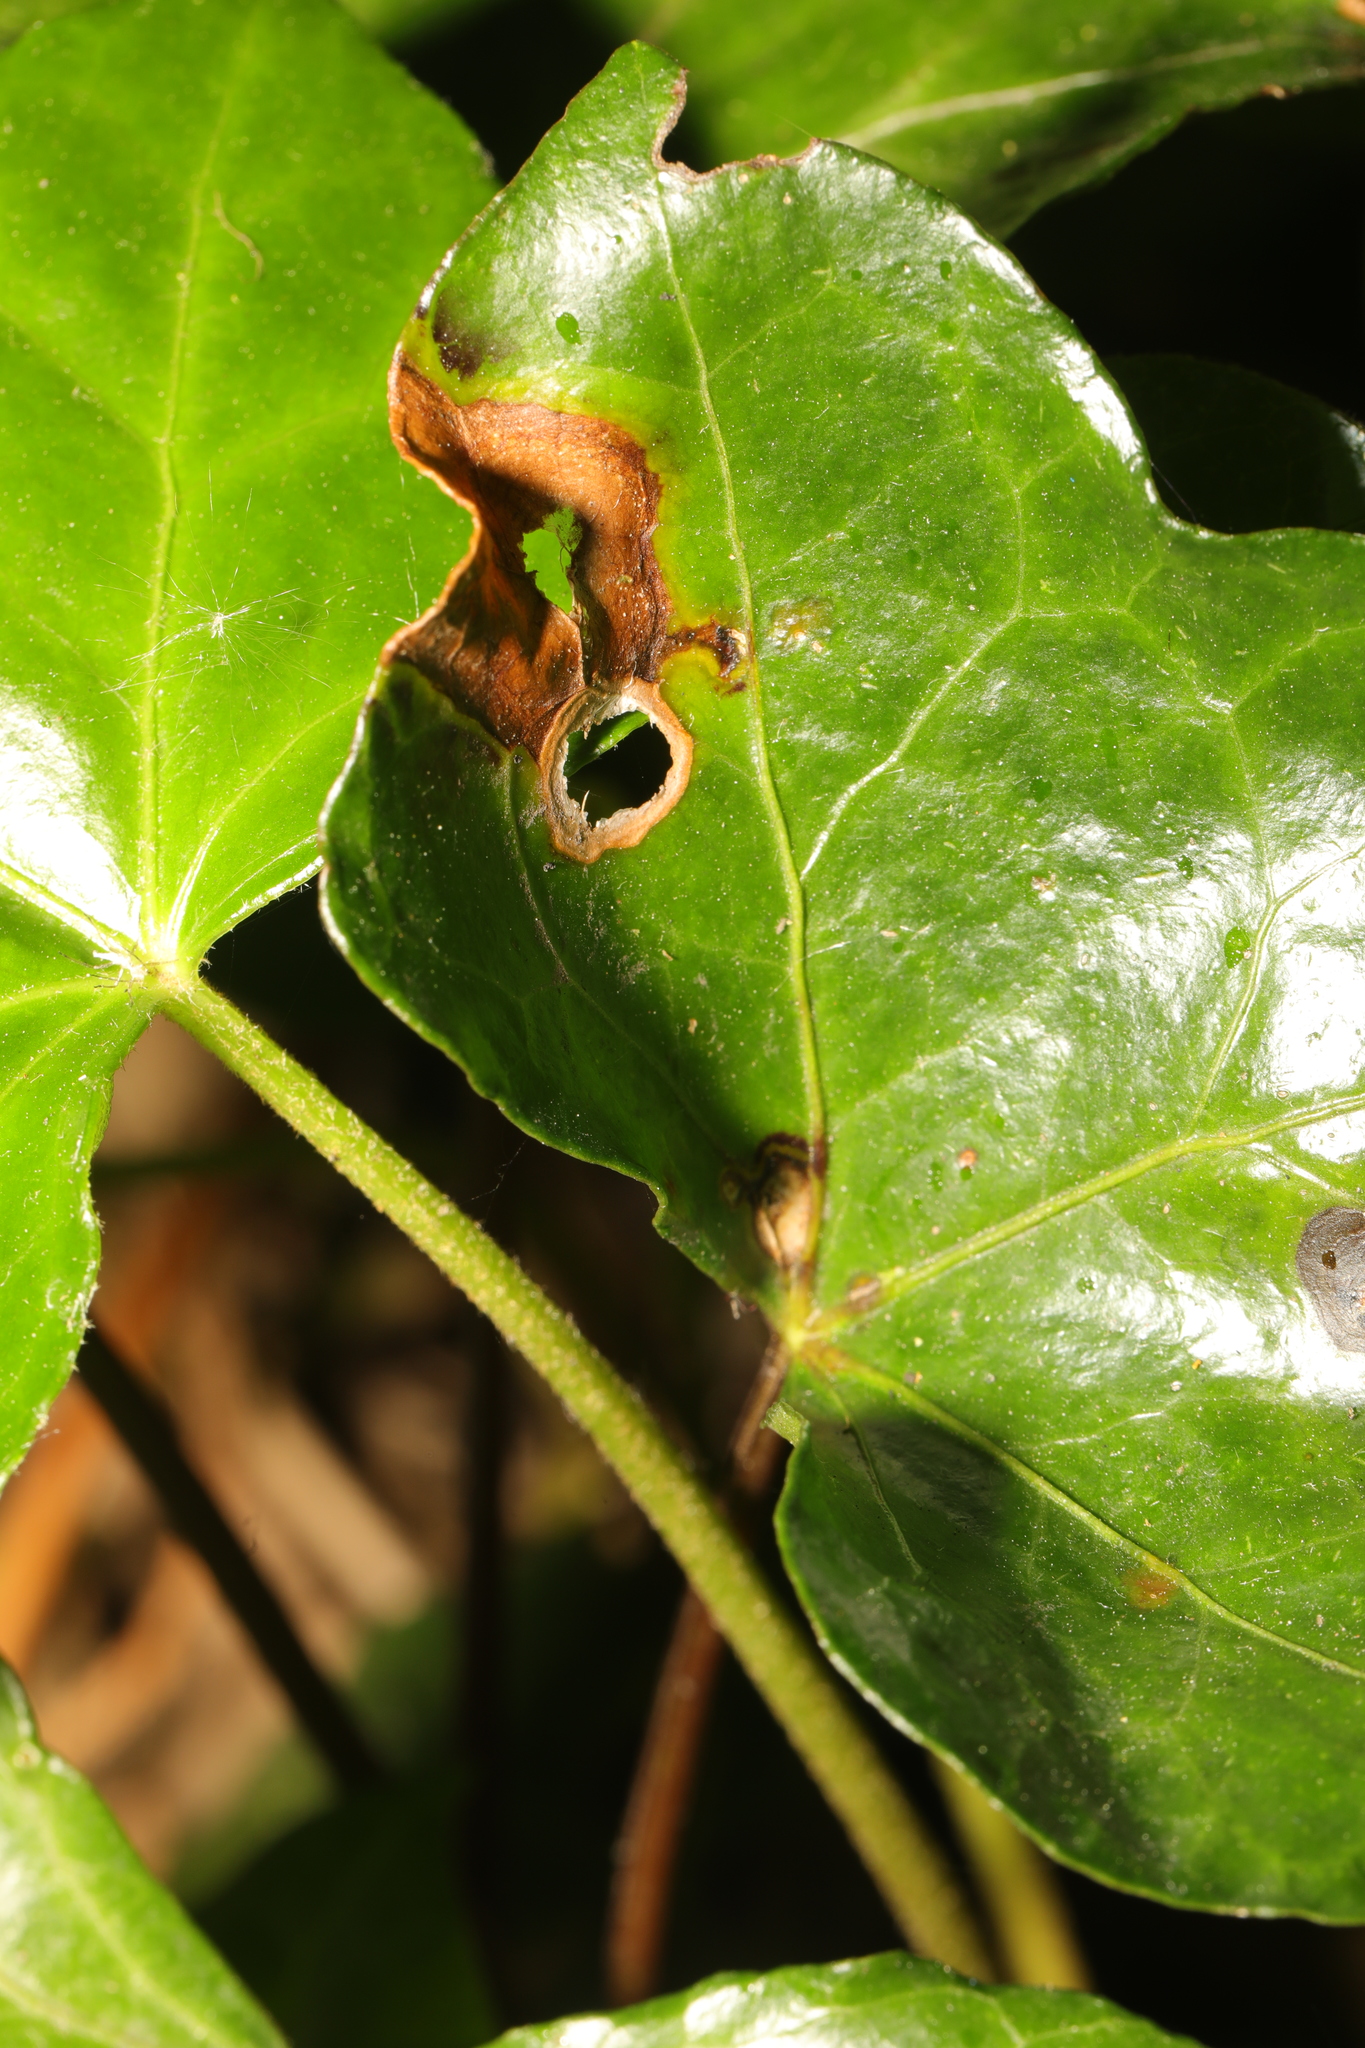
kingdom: Fungi
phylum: Ascomycota
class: Dothideomycetes
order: Pleosporales
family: Didymellaceae
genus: Boeremia
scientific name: Boeremia hedericola
